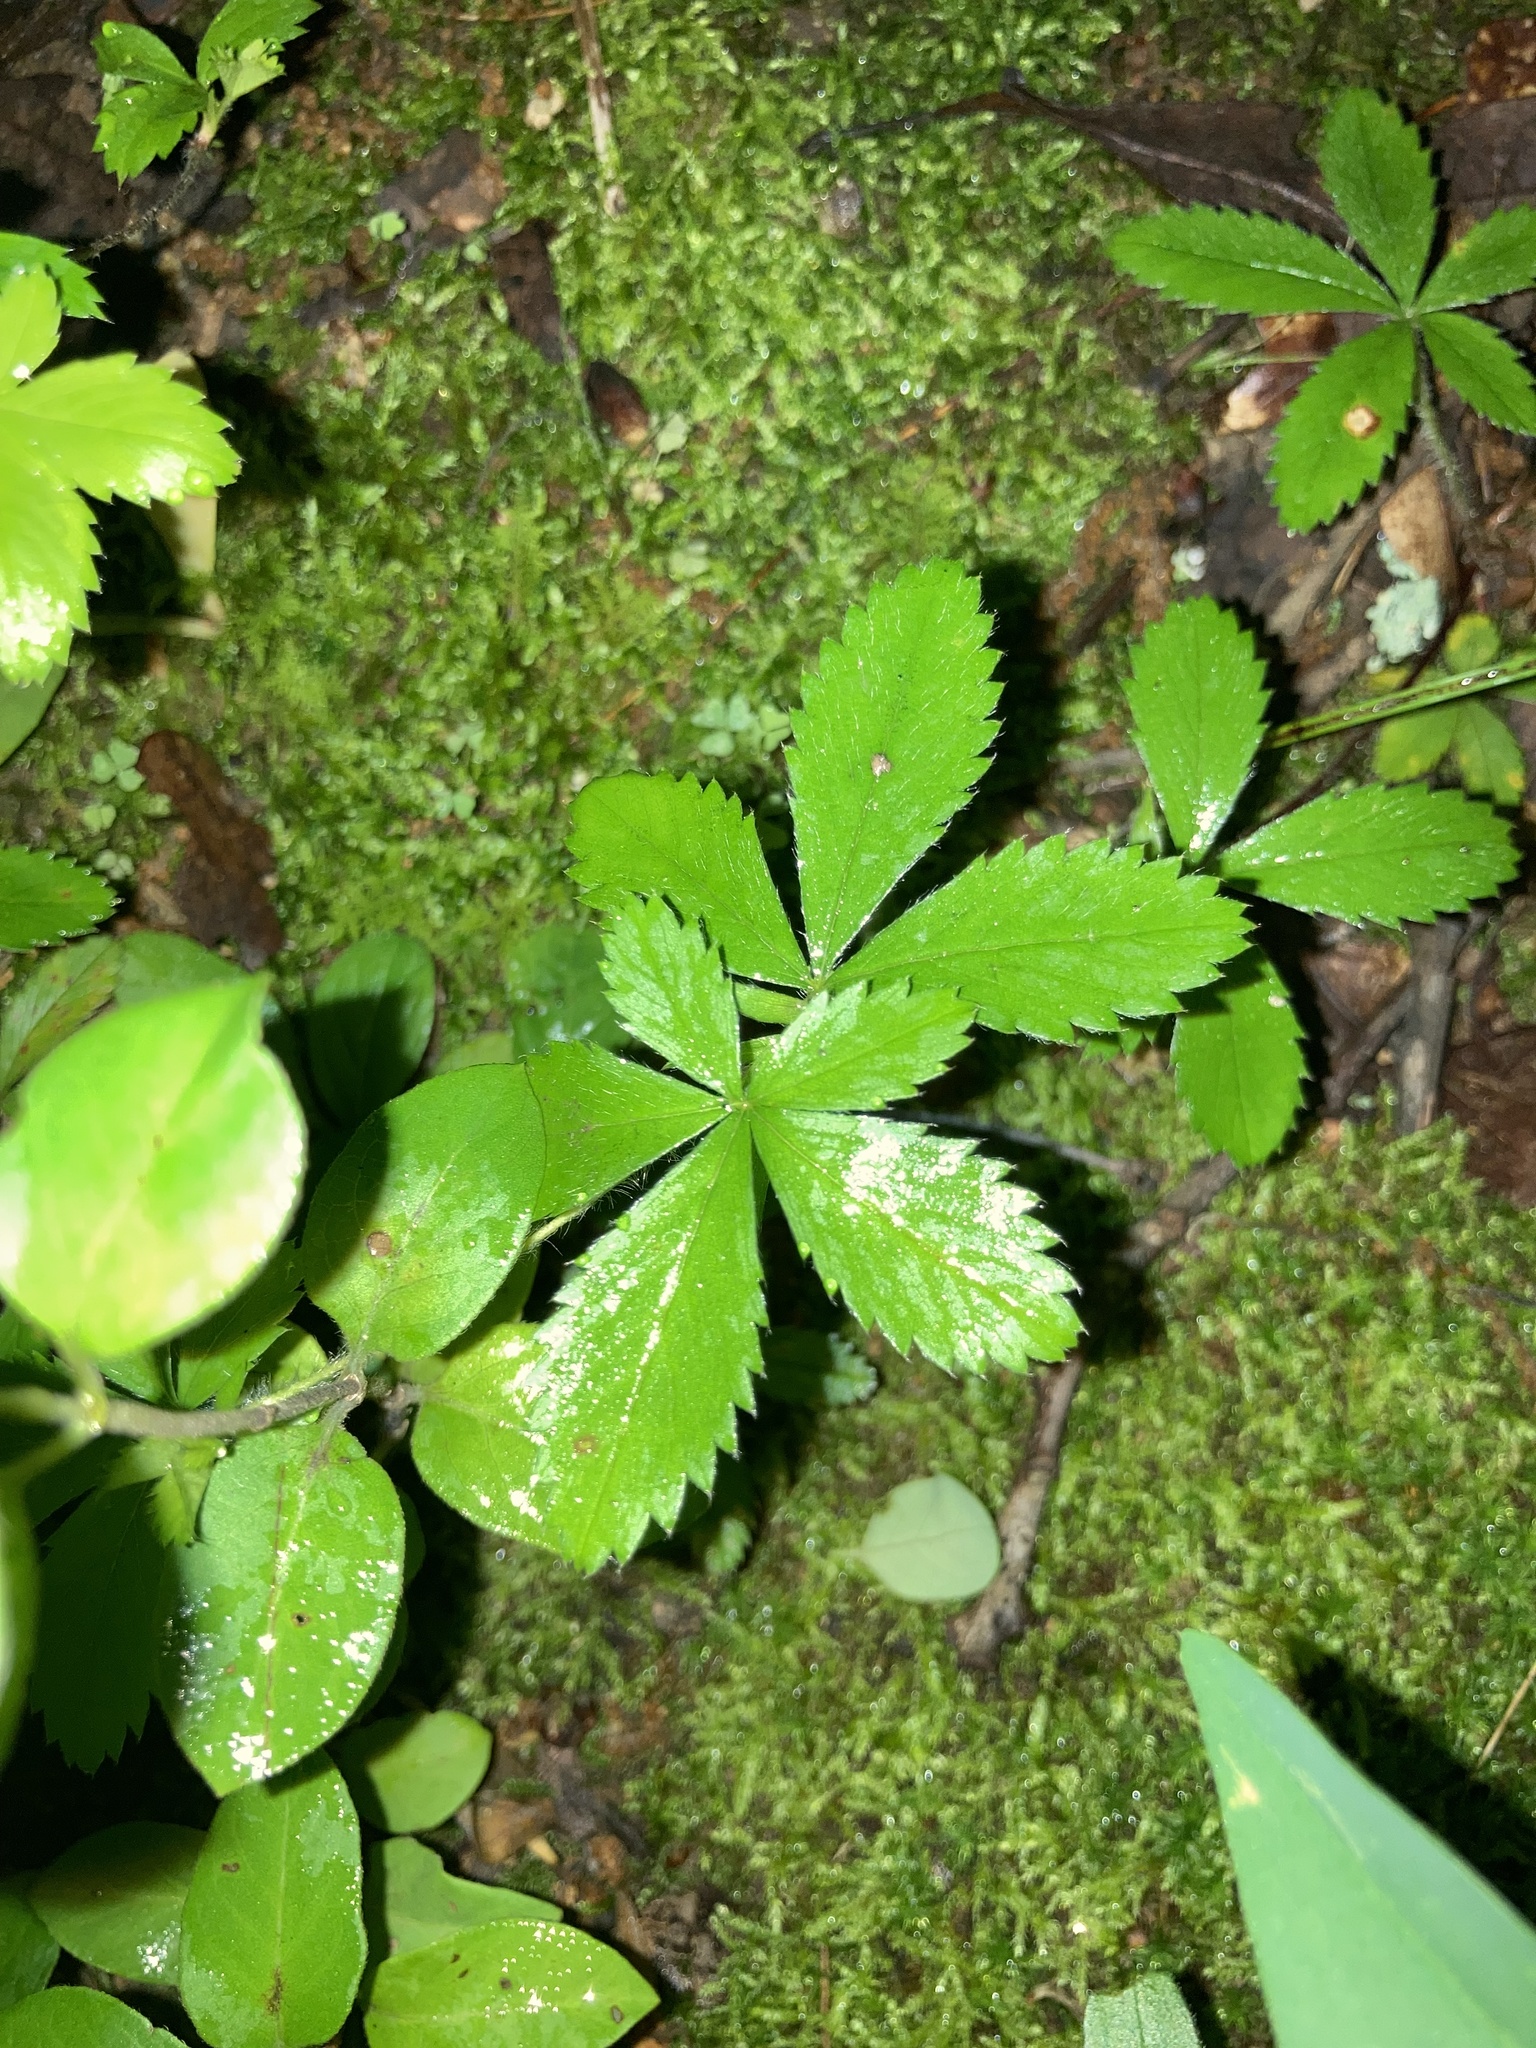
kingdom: Plantae
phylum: Tracheophyta
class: Magnoliopsida
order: Rosales
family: Rosaceae
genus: Potentilla
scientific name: Potentilla simplex
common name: Old field cinquefoil
